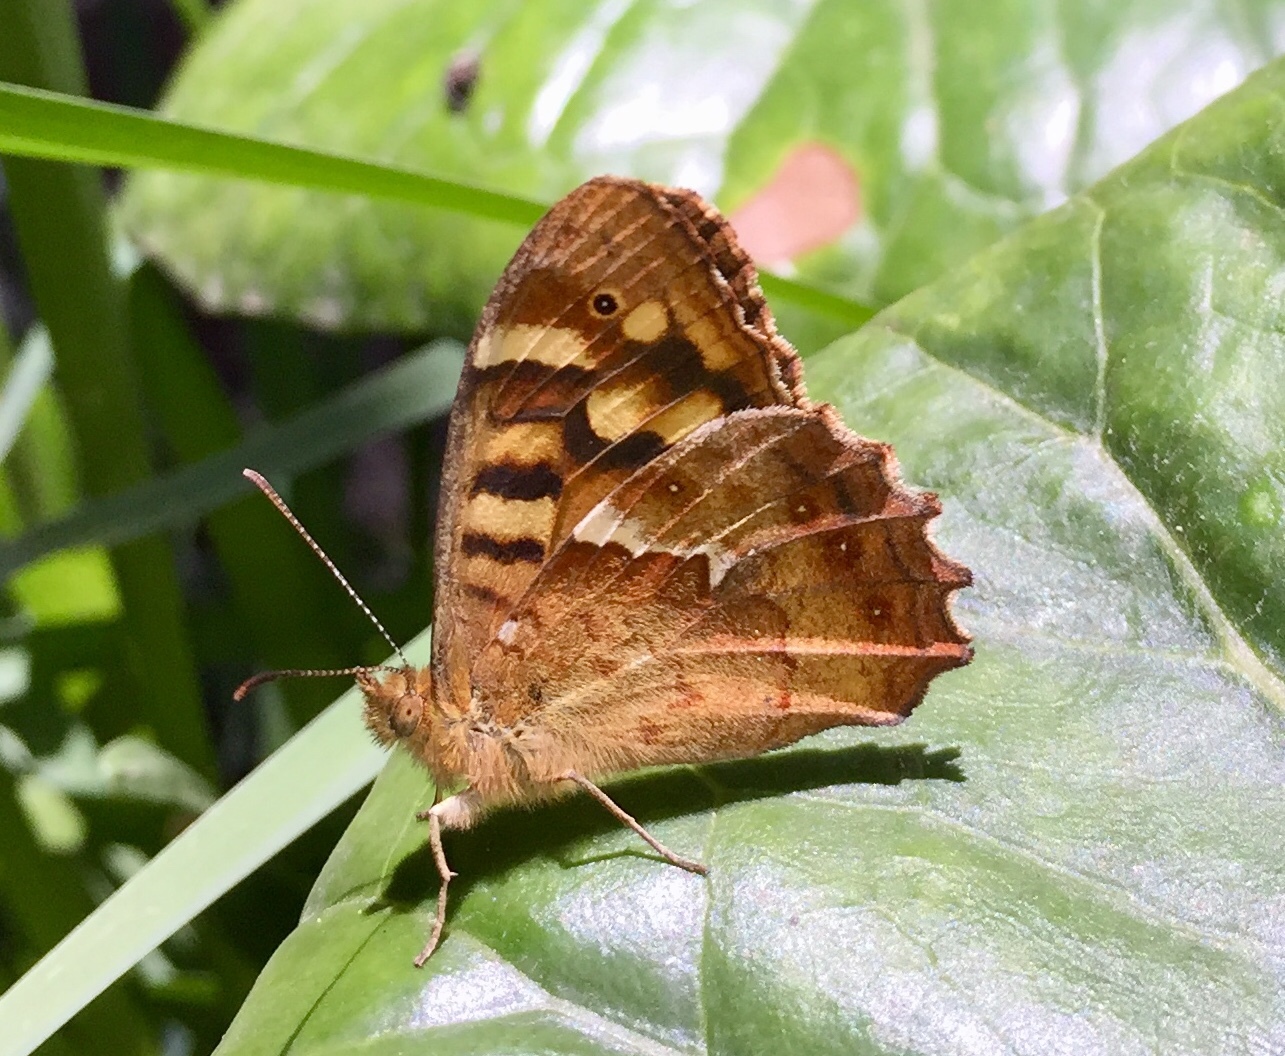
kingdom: Animalia
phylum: Arthropoda
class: Insecta
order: Lepidoptera
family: Nymphalidae
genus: Pararge
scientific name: Pararge aegeria
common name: Speckled wood
